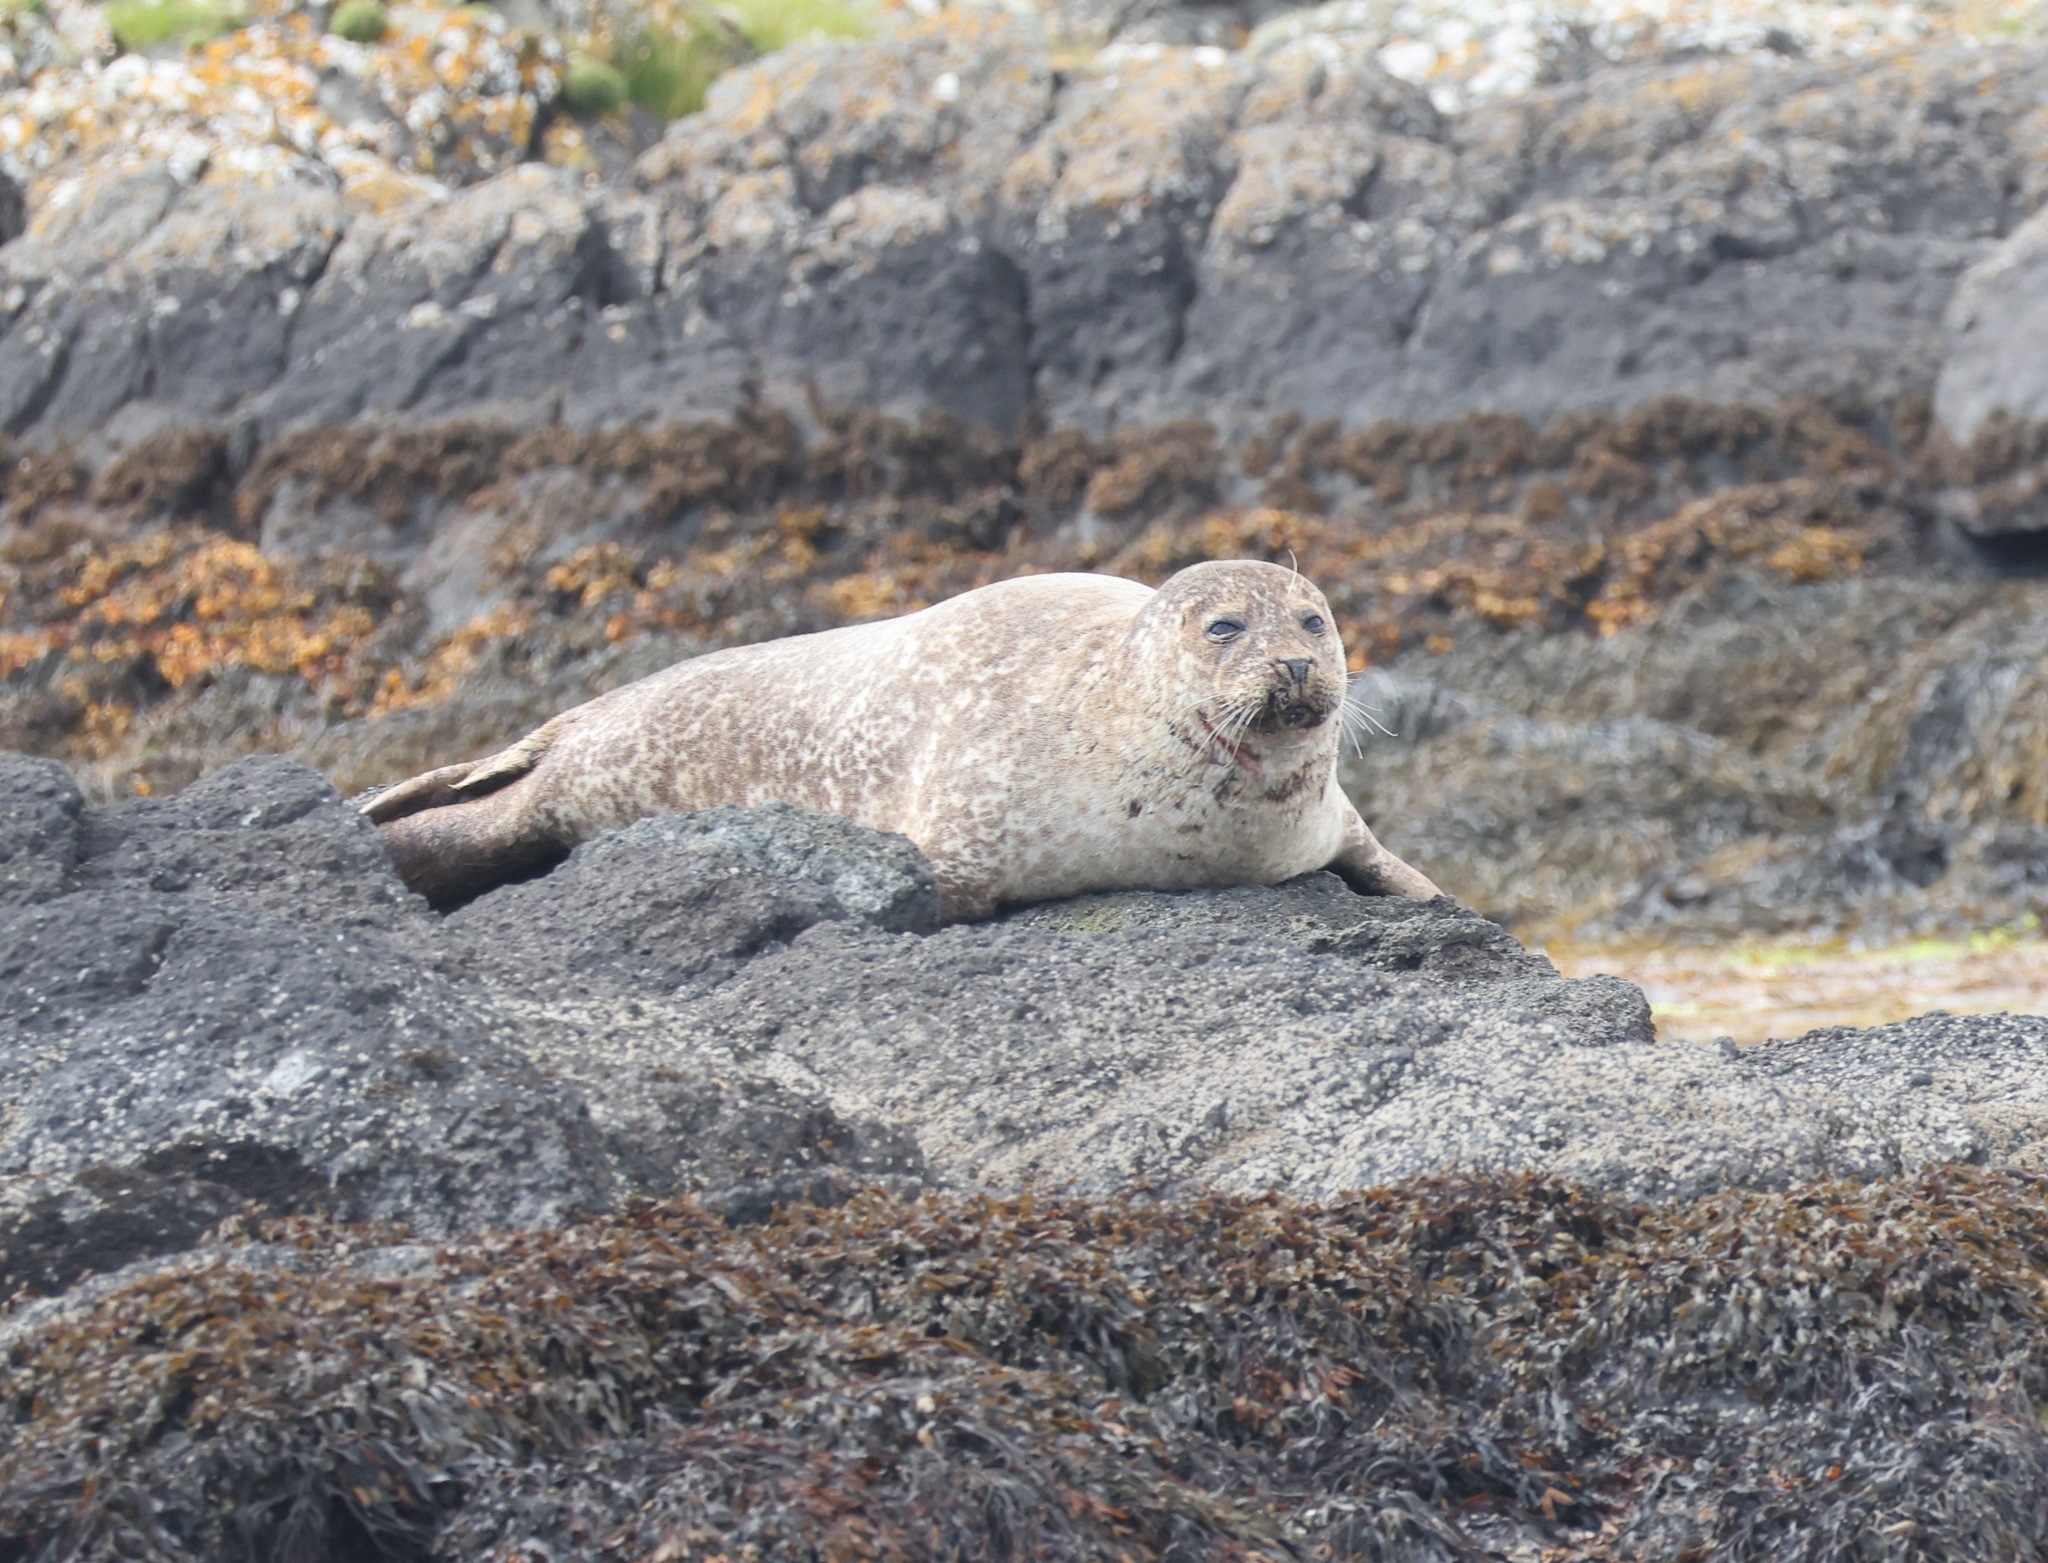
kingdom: Animalia
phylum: Chordata
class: Mammalia
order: Carnivora
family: Phocidae
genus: Phoca
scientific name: Phoca vitulina
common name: Harbor seal
